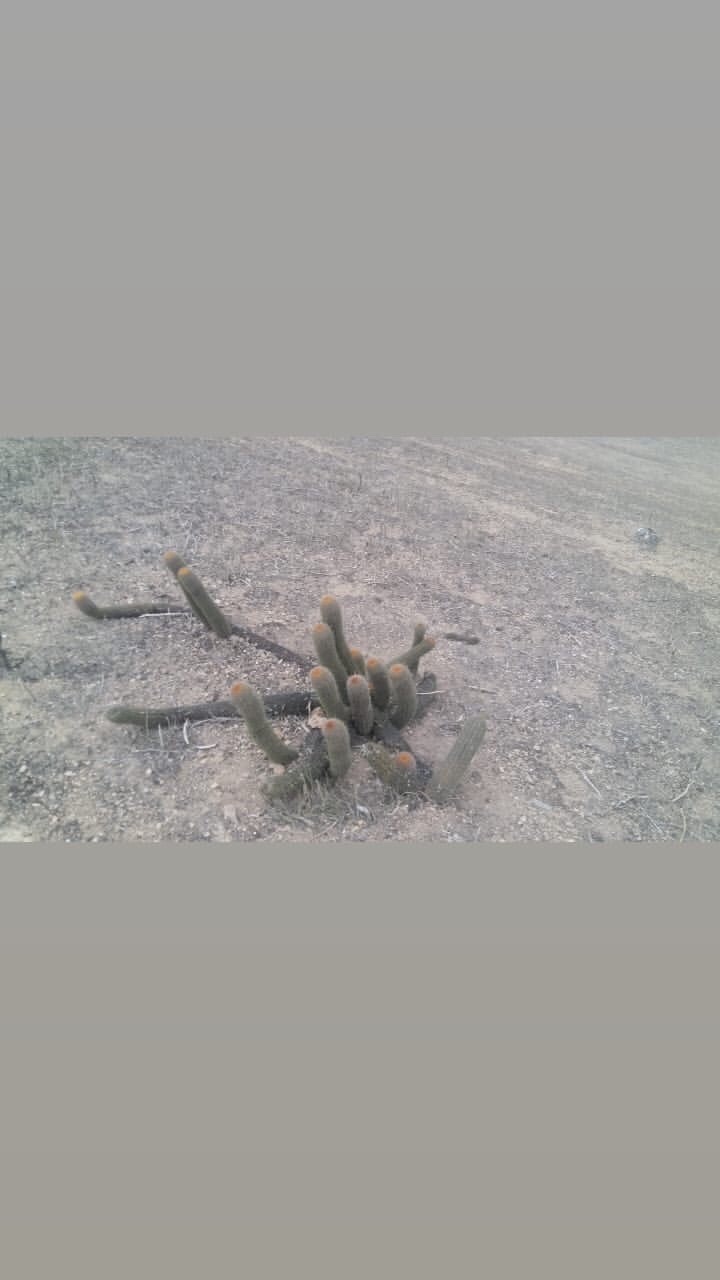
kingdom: Plantae
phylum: Tracheophyta
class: Magnoliopsida
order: Caryophyllales
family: Cactaceae
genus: Borzicactus
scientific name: Borzicactus acanthurus
